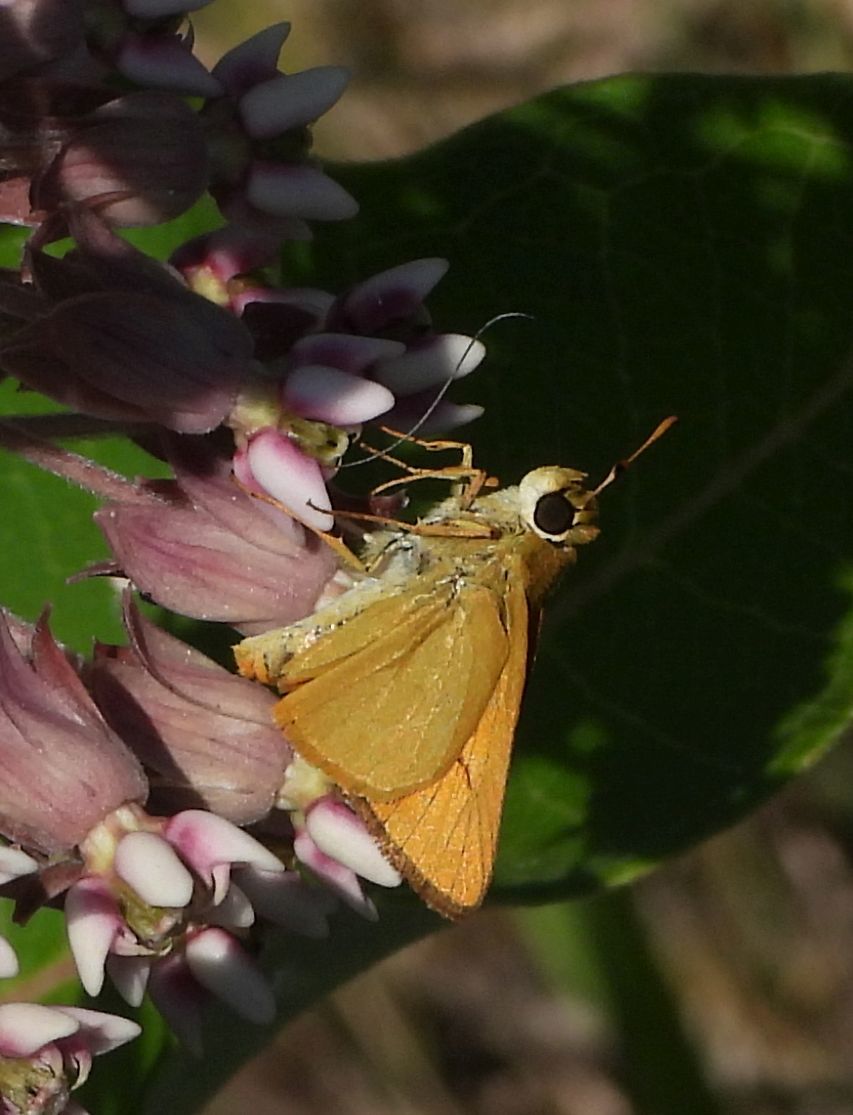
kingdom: Animalia
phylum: Arthropoda
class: Insecta
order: Lepidoptera
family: Hesperiidae
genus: Atrytone
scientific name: Atrytone delaware
